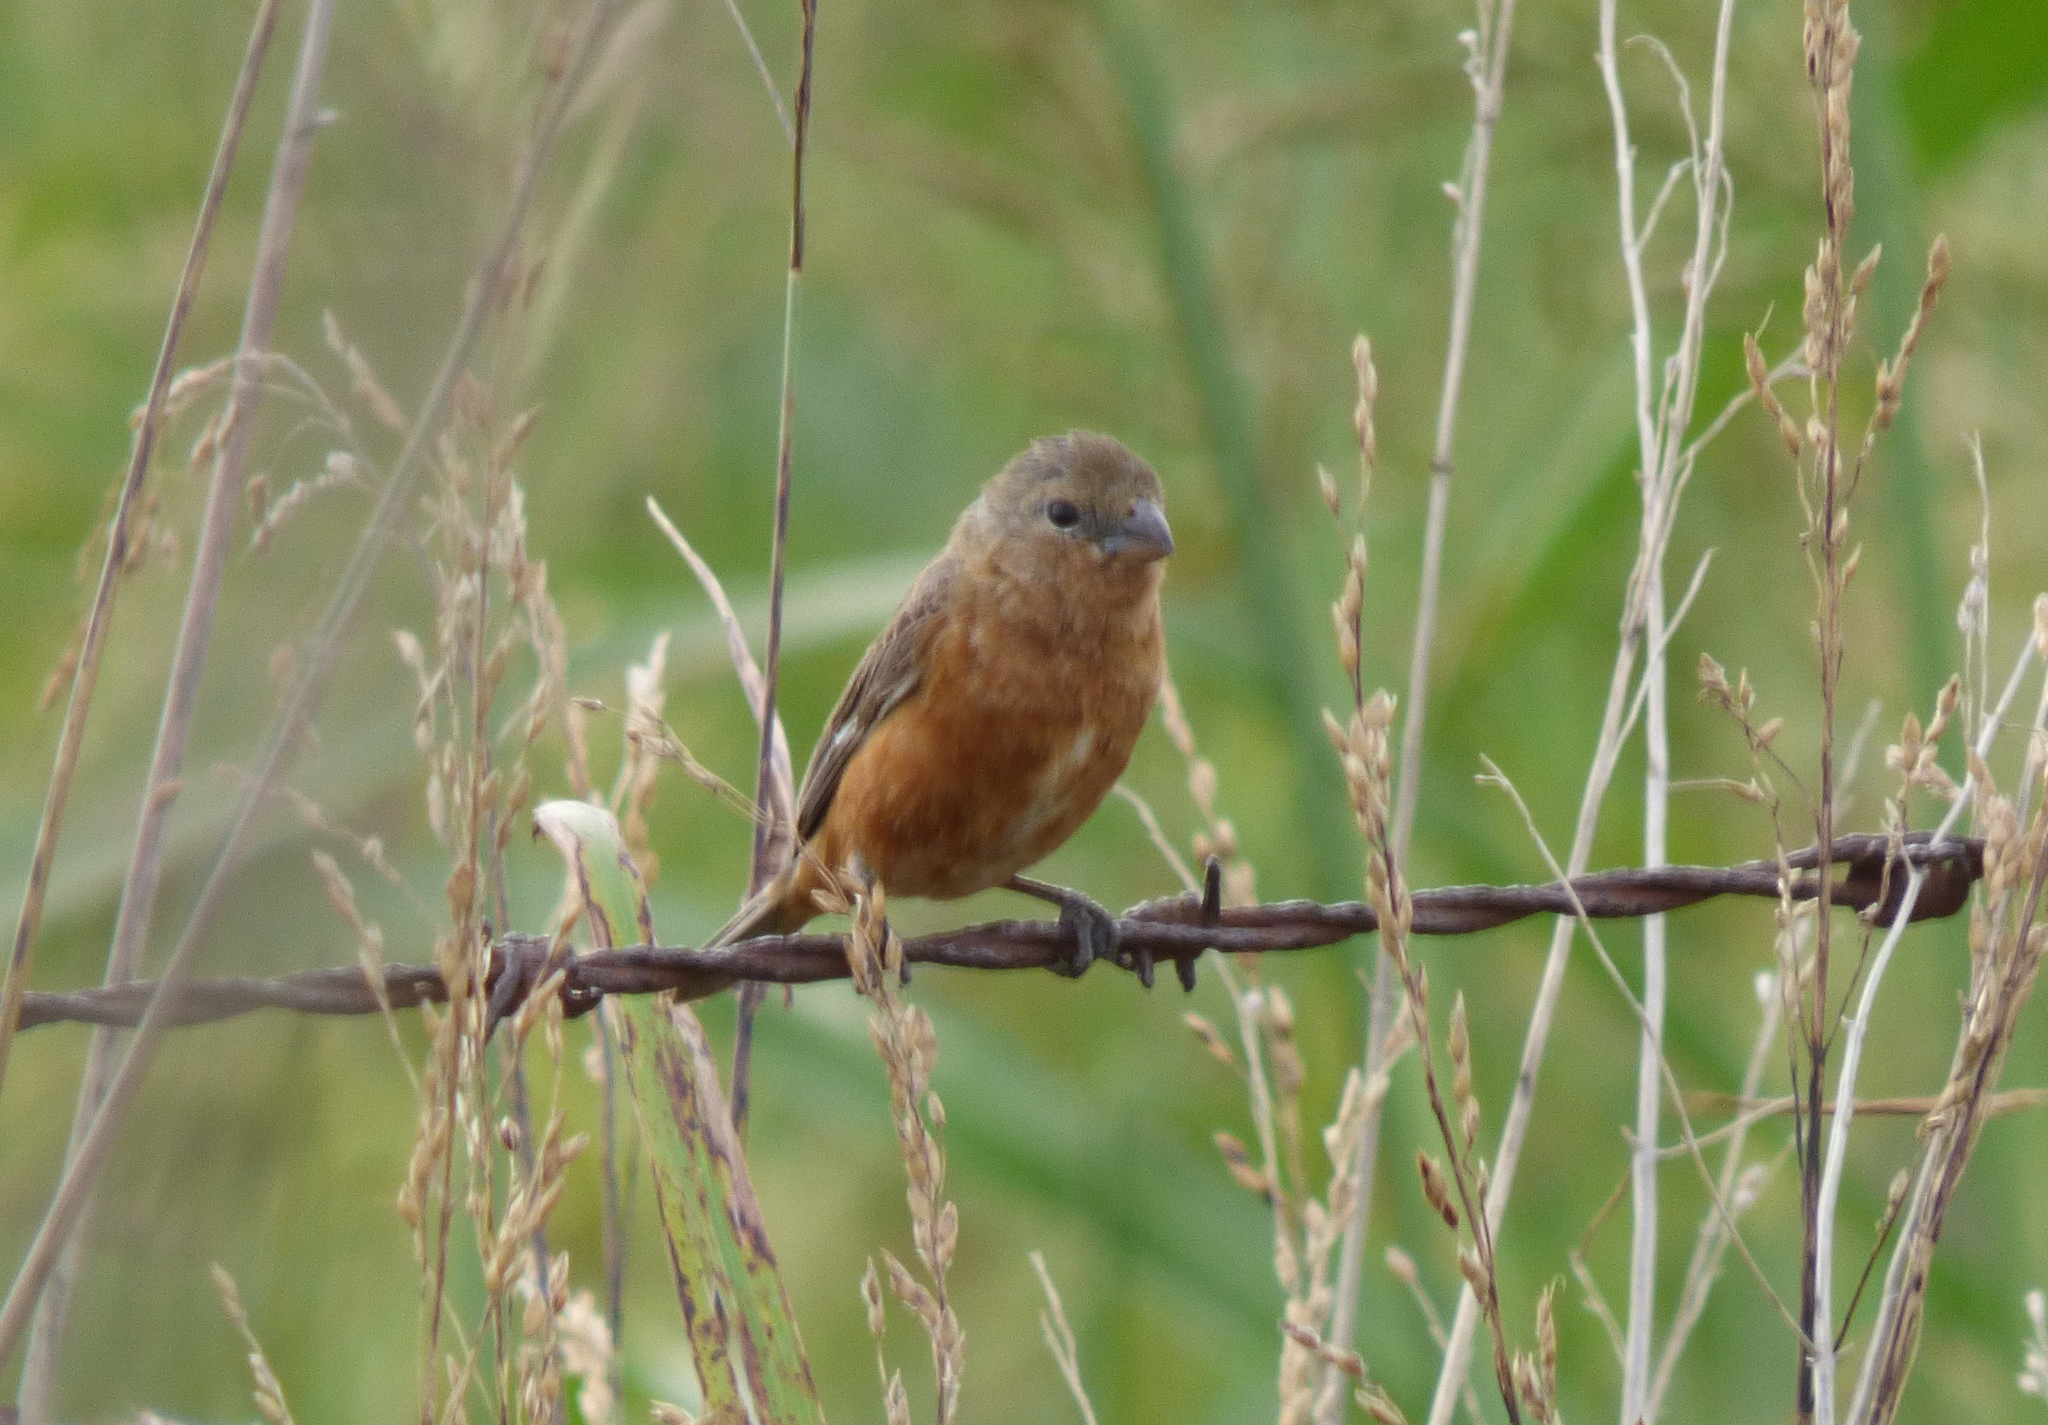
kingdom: Animalia
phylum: Chordata
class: Aves
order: Passeriformes
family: Thraupidae
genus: Sporophila
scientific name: Sporophila hypoxantha
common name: Tawny-bellied seedeater
